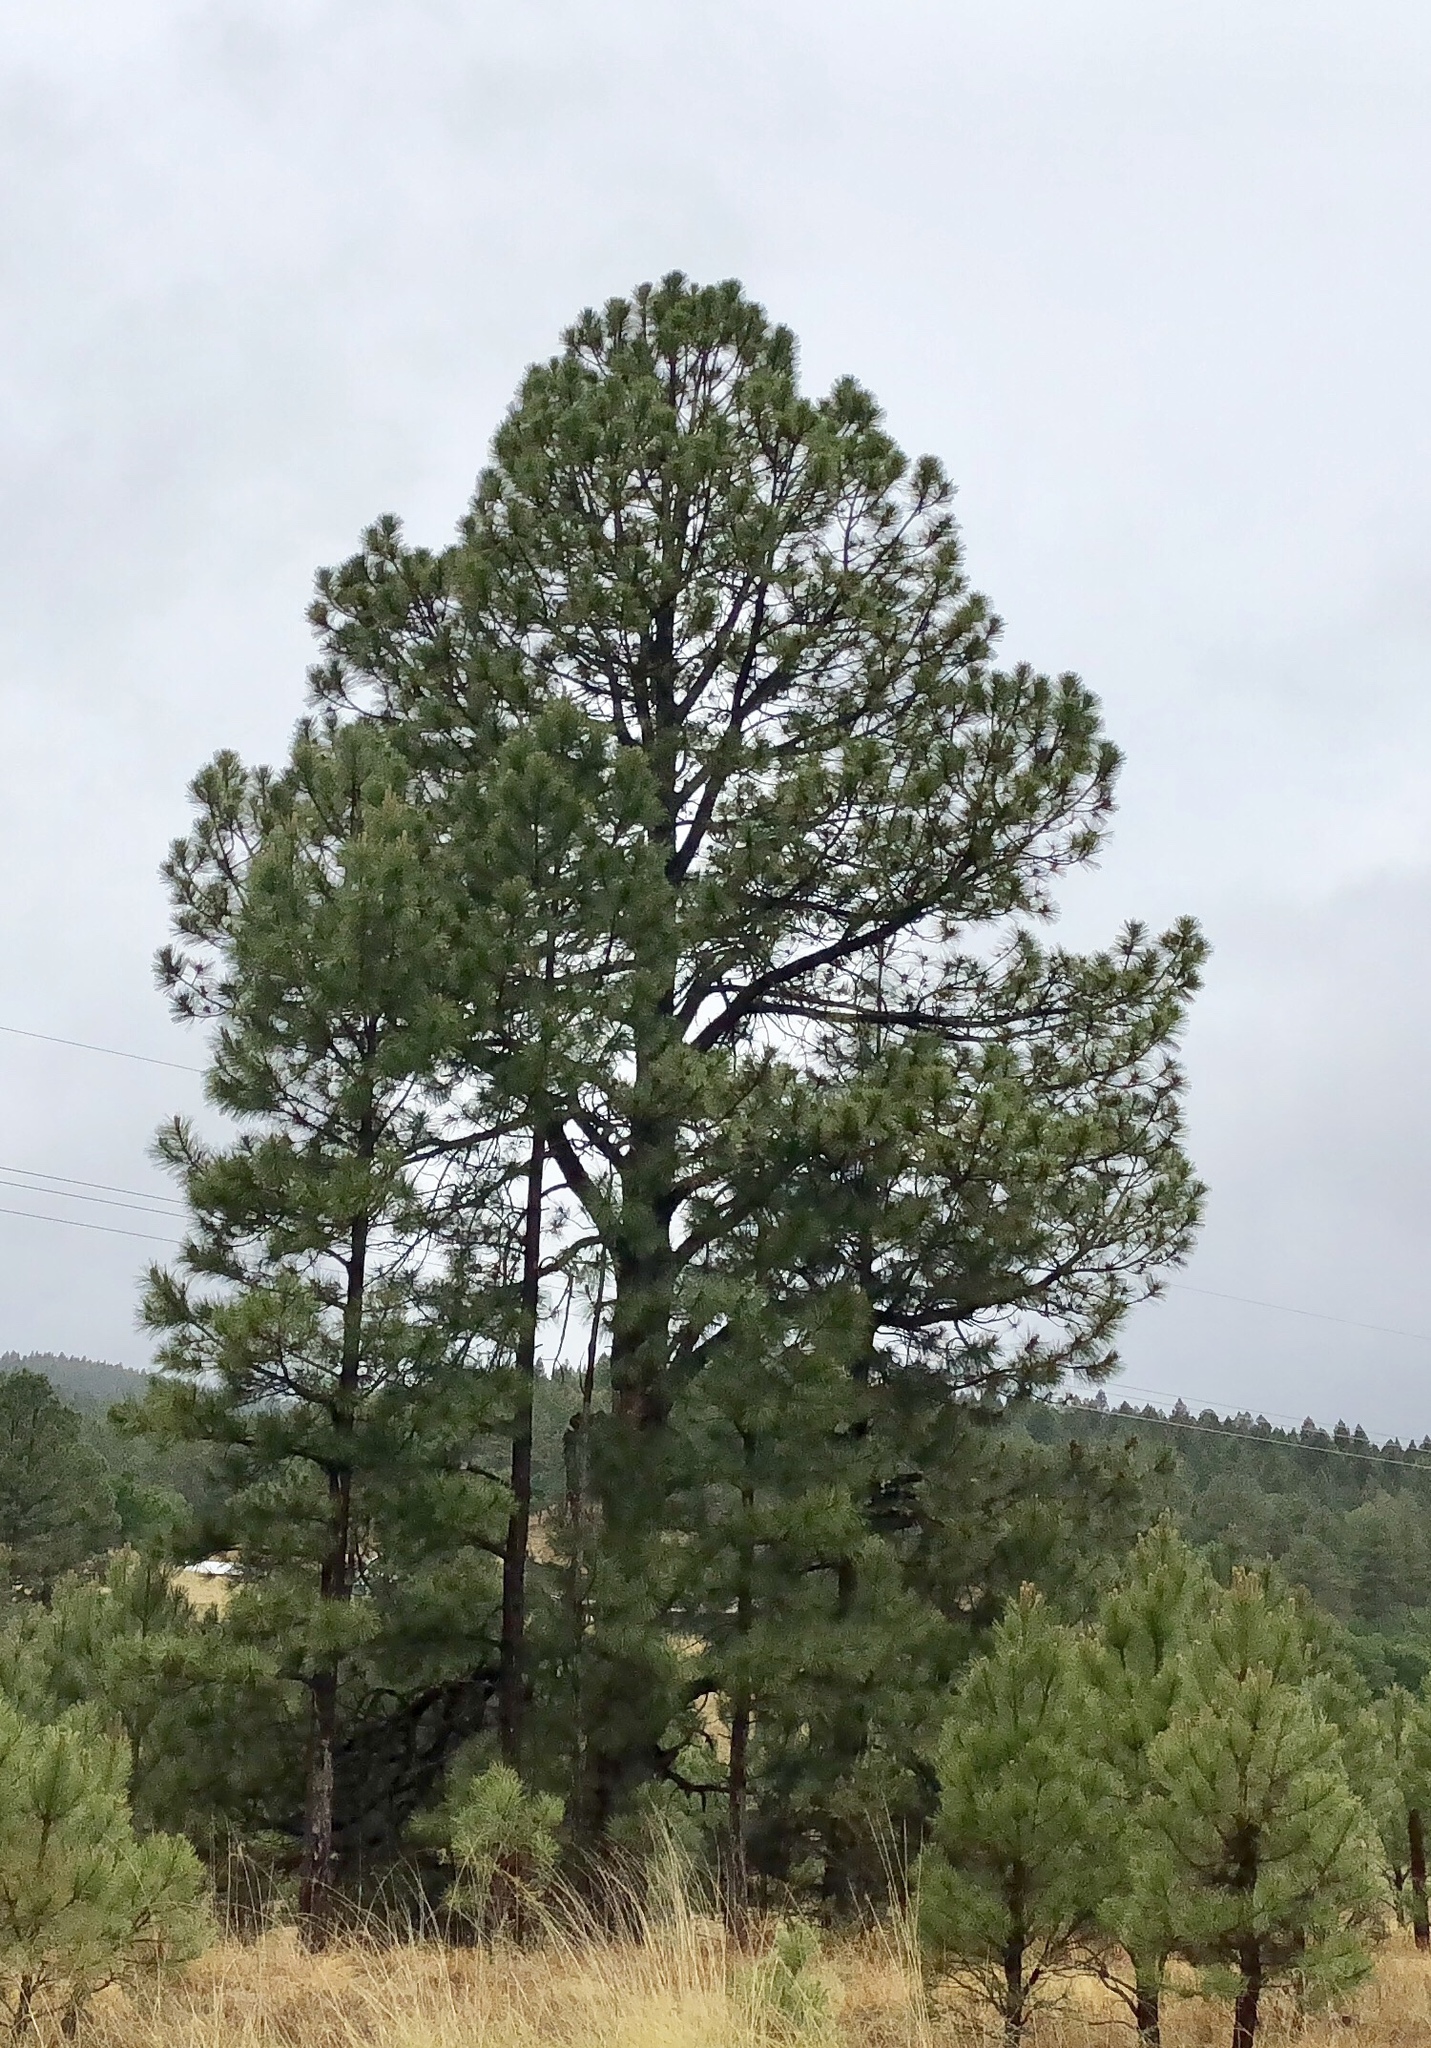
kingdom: Plantae
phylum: Tracheophyta
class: Pinopsida
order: Pinales
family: Pinaceae
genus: Pinus
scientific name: Pinus ponderosa
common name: Western yellow-pine
